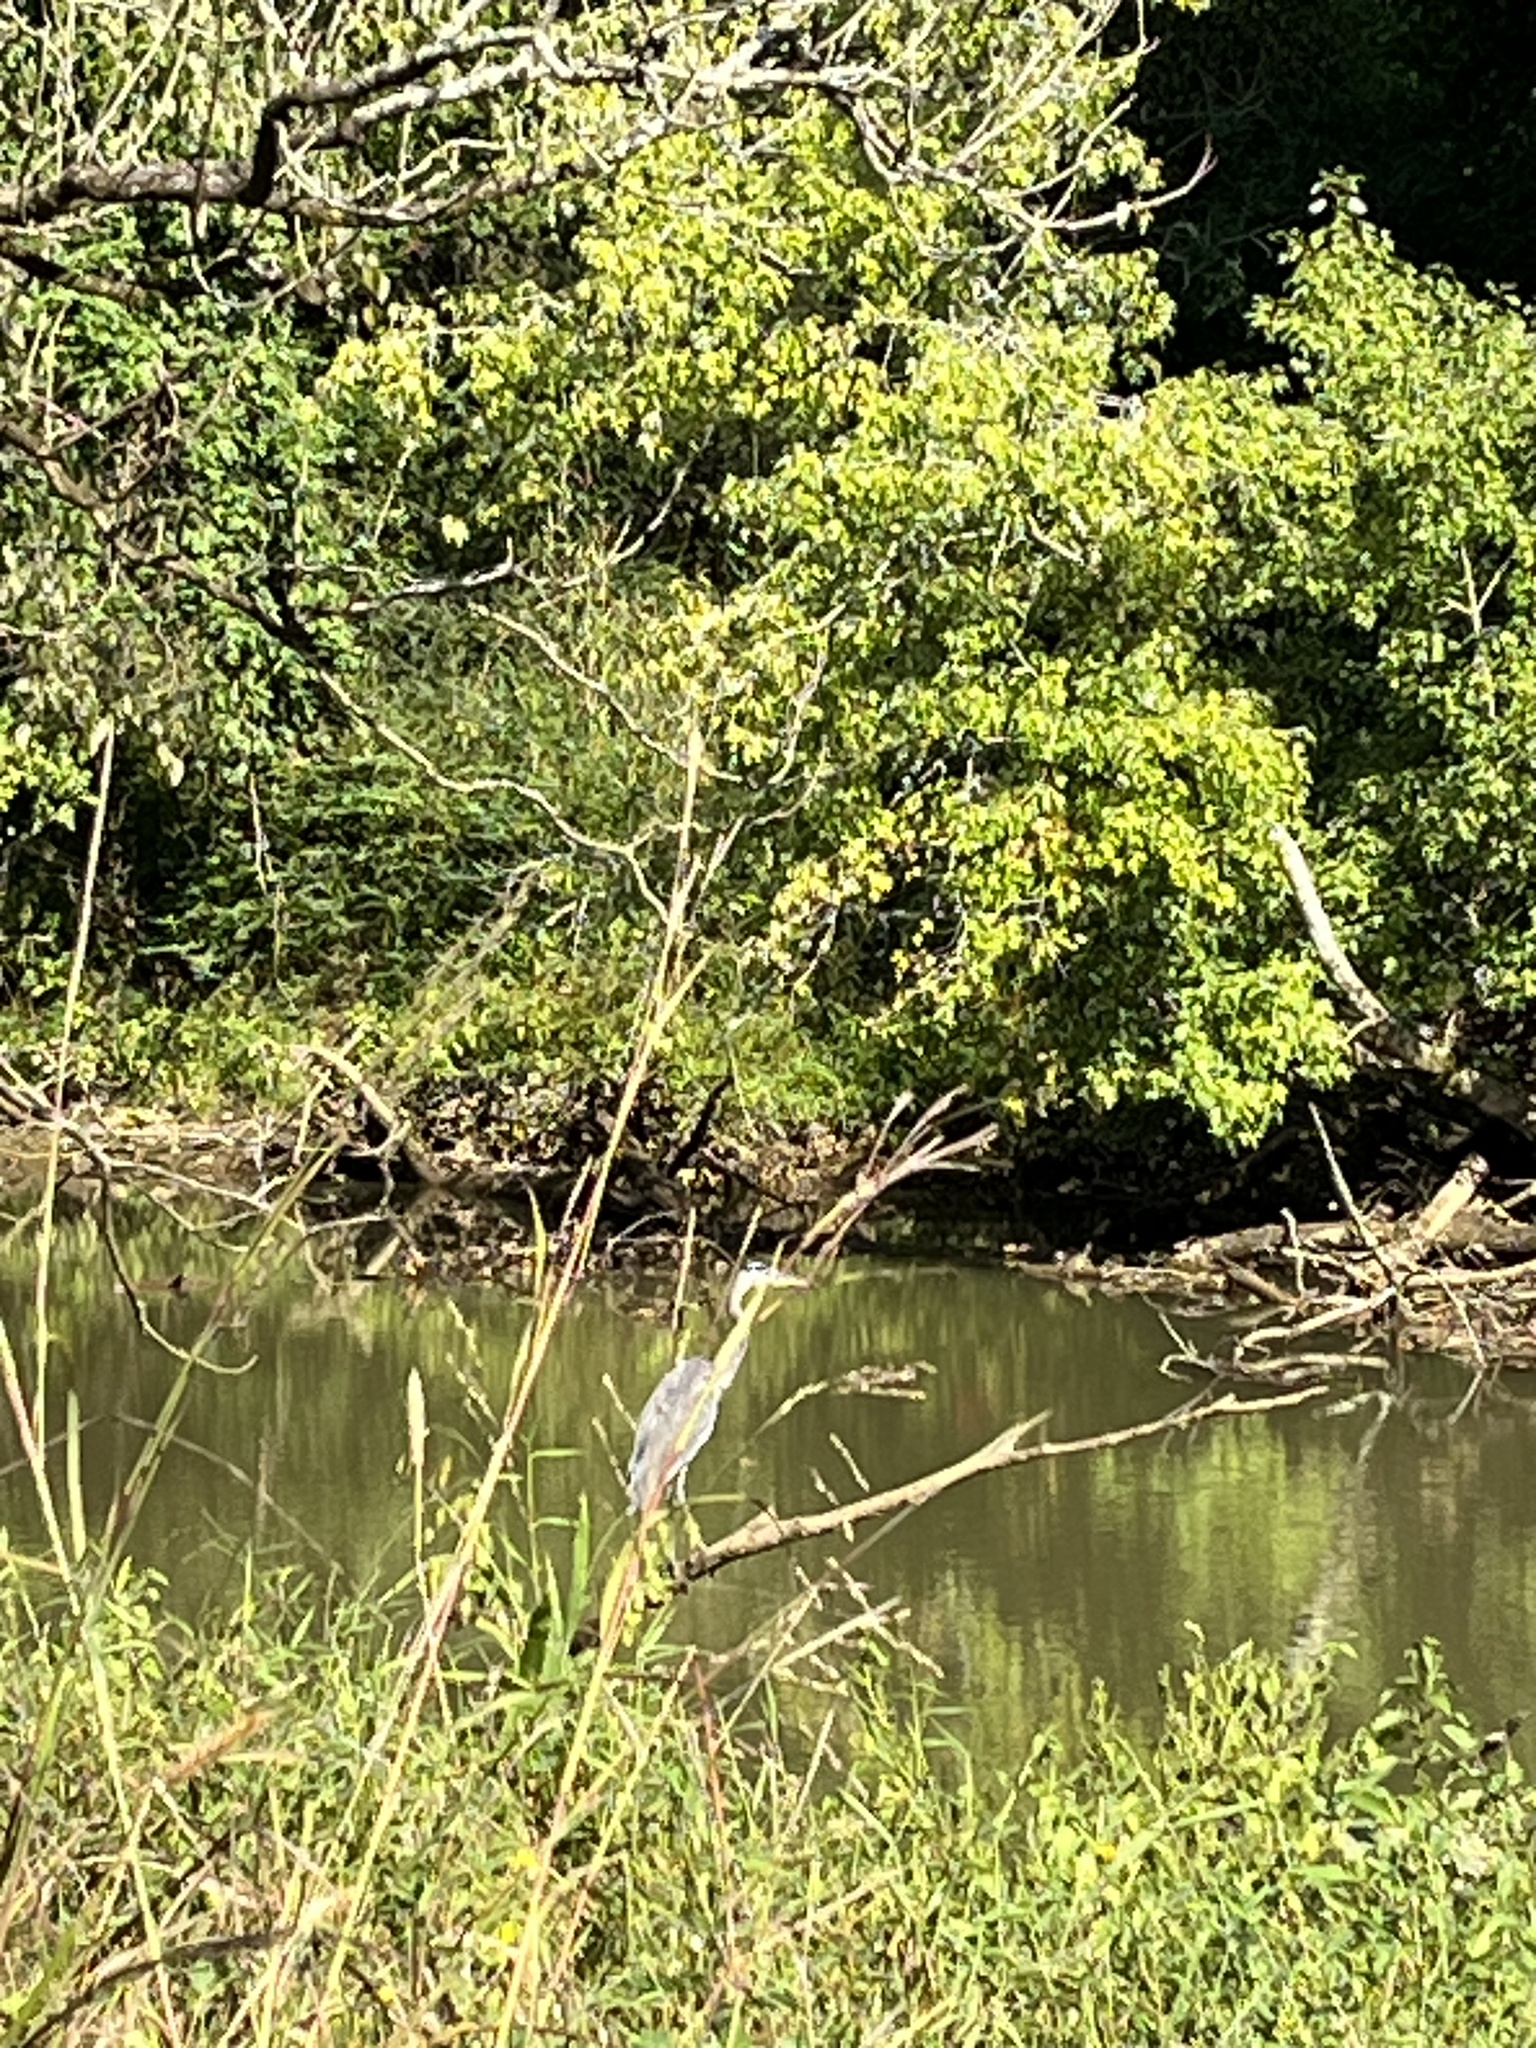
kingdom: Animalia
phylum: Chordata
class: Aves
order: Pelecaniformes
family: Ardeidae
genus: Ardea
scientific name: Ardea herodias
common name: Great blue heron
